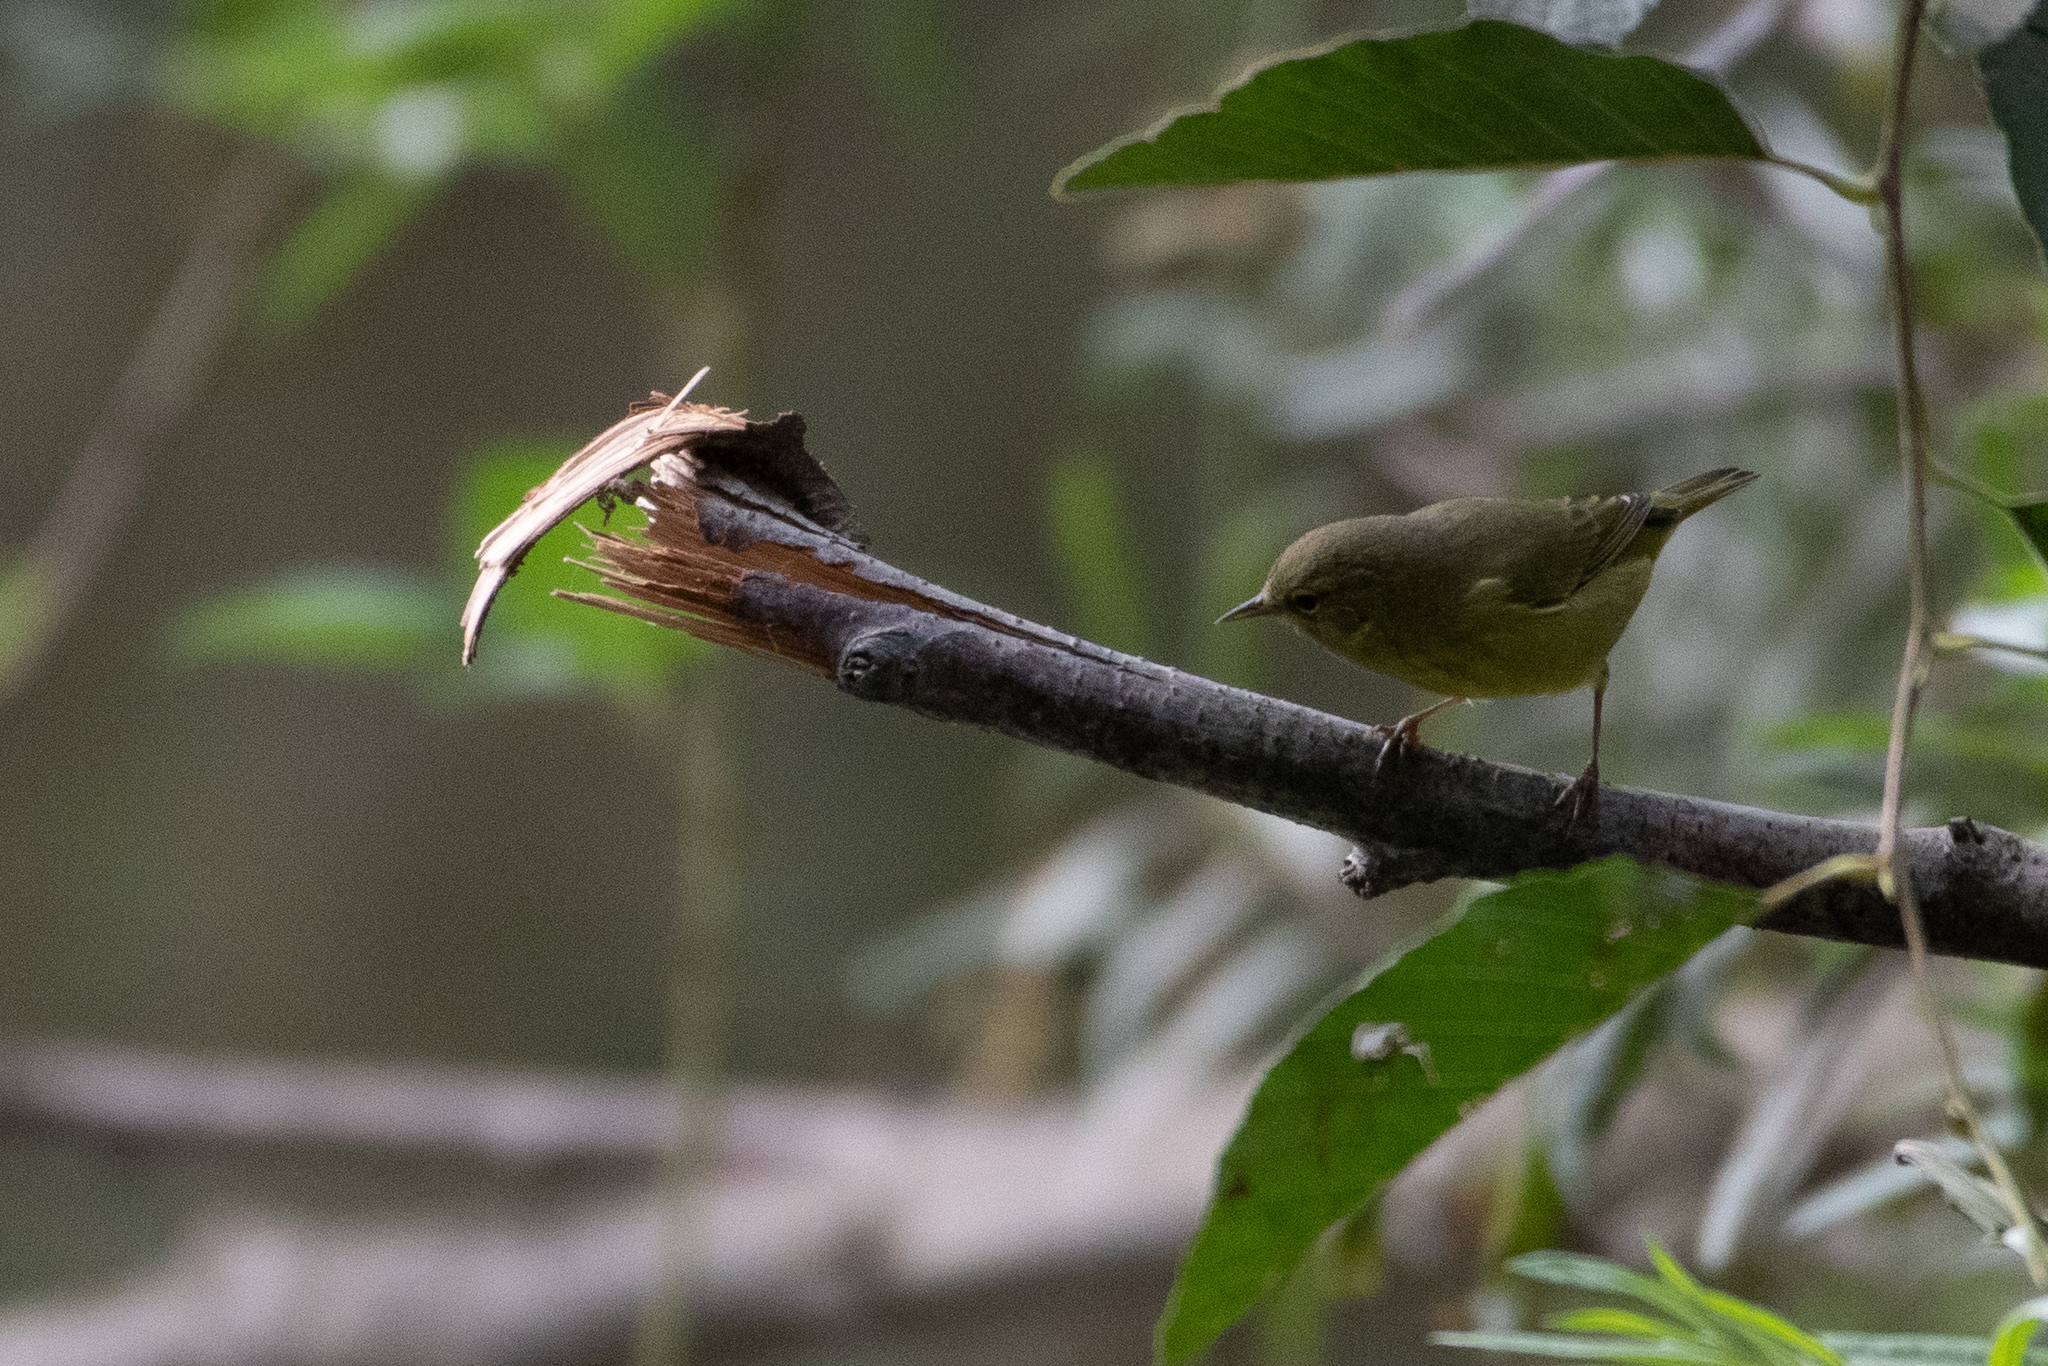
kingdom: Animalia
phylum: Chordata
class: Aves
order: Passeriformes
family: Parulidae
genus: Leiothlypis
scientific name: Leiothlypis celata
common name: Orange-crowned warbler
